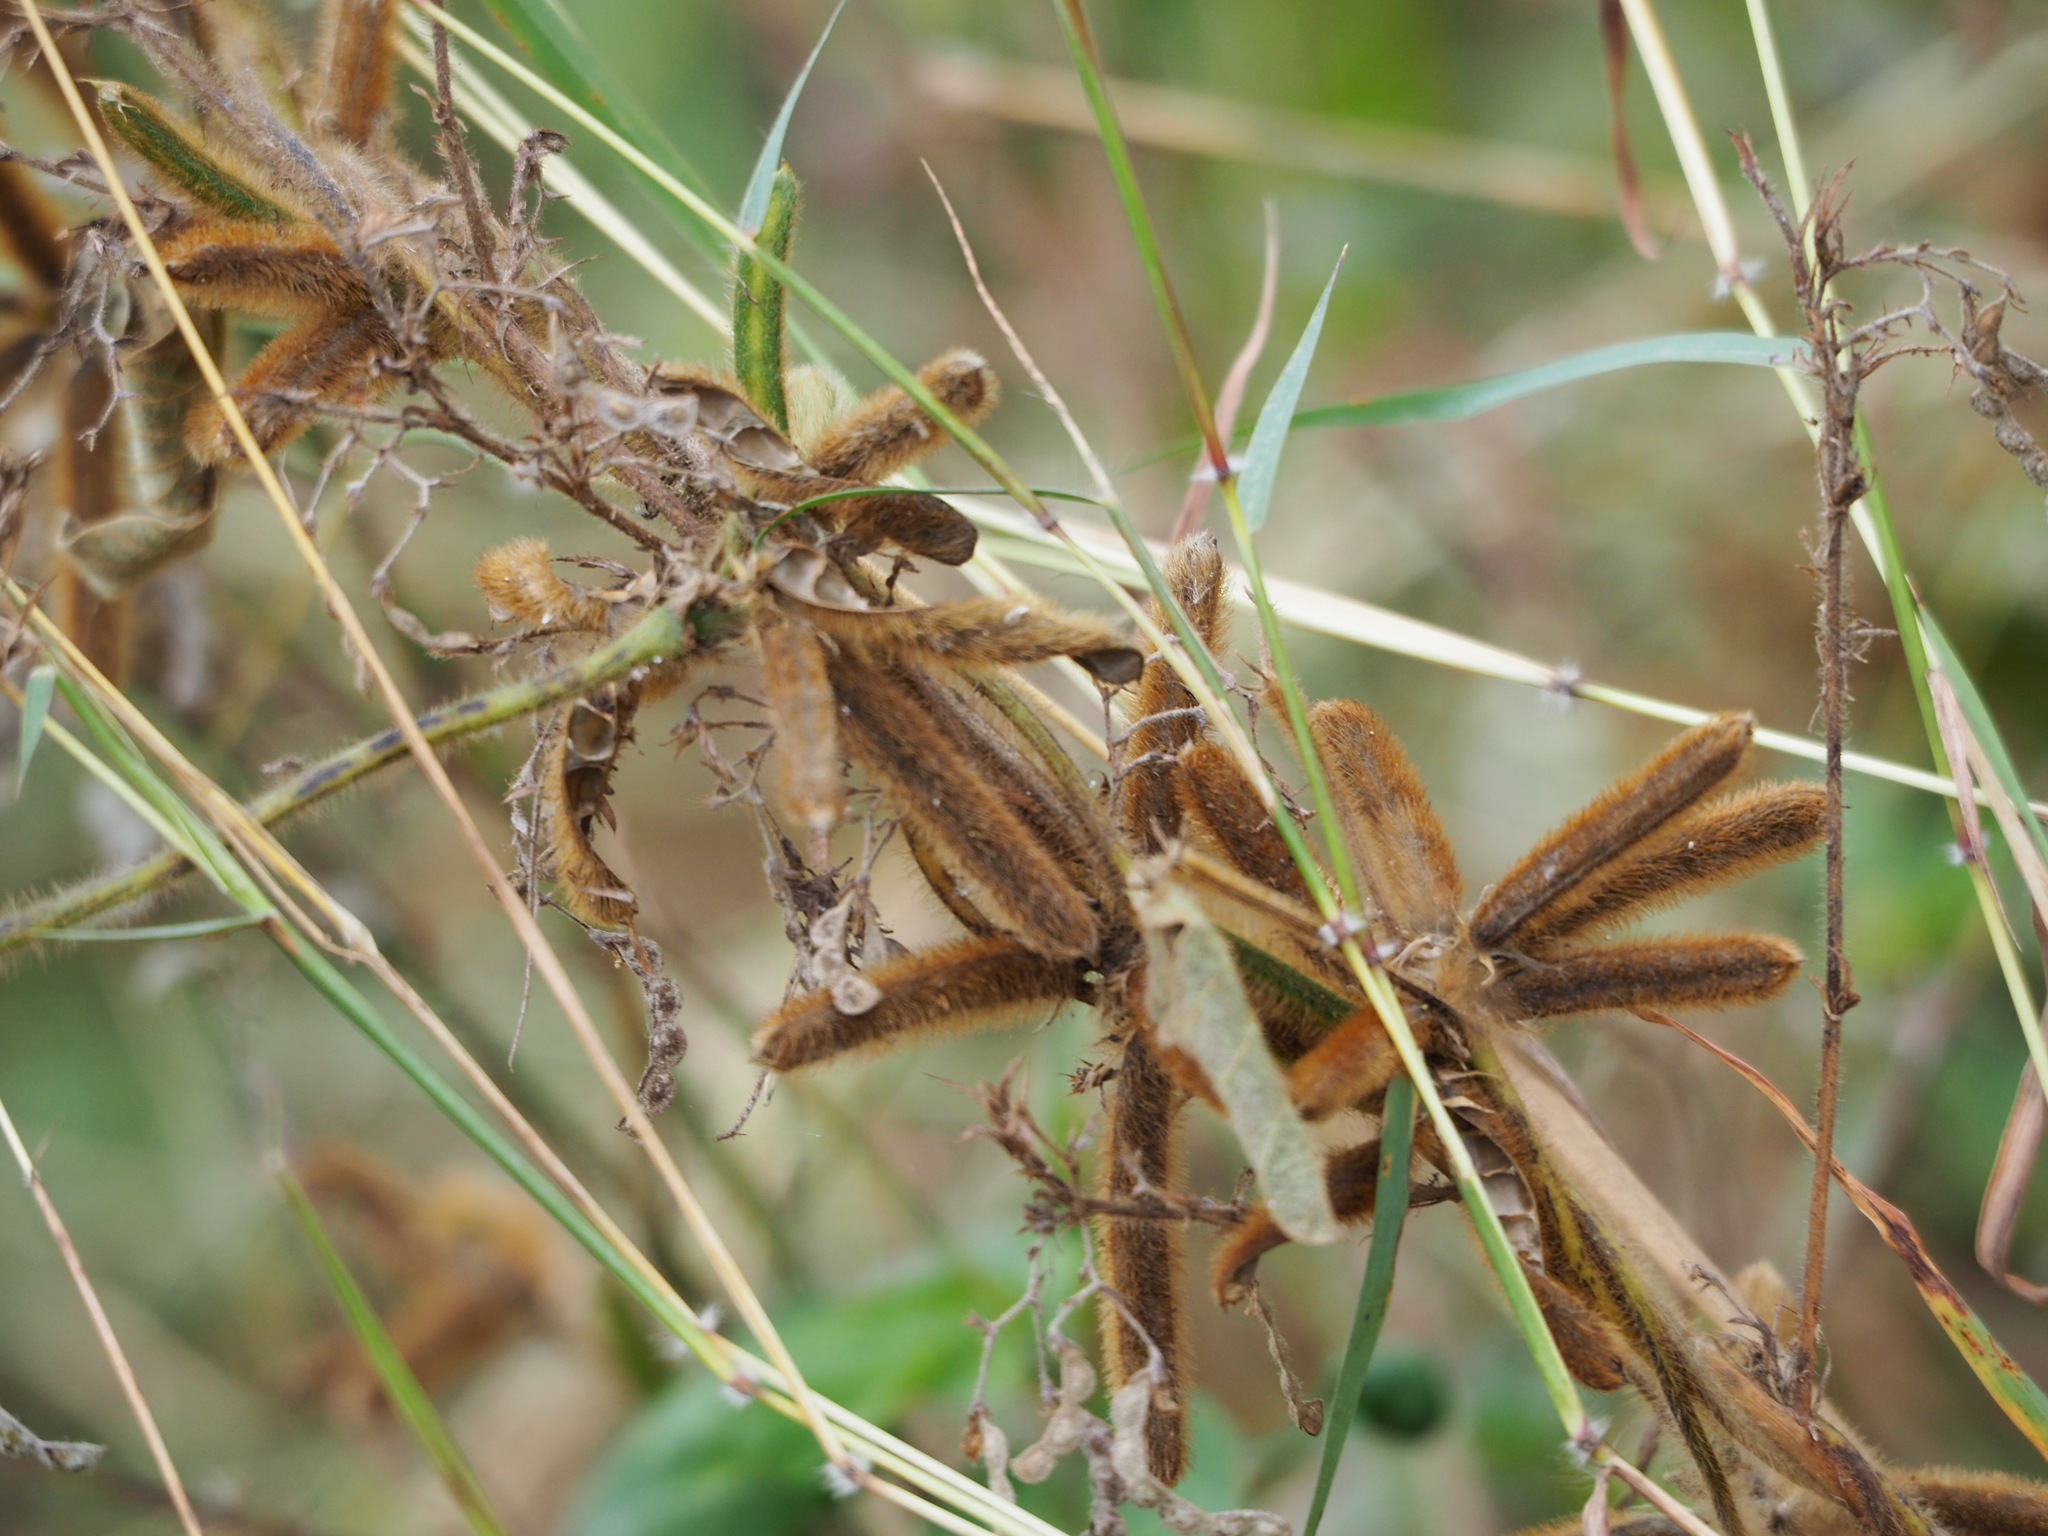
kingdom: Plantae
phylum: Tracheophyta
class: Magnoliopsida
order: Fabales
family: Fabaceae
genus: Calopogonium
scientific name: Calopogonium mucunoides
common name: Calopo
